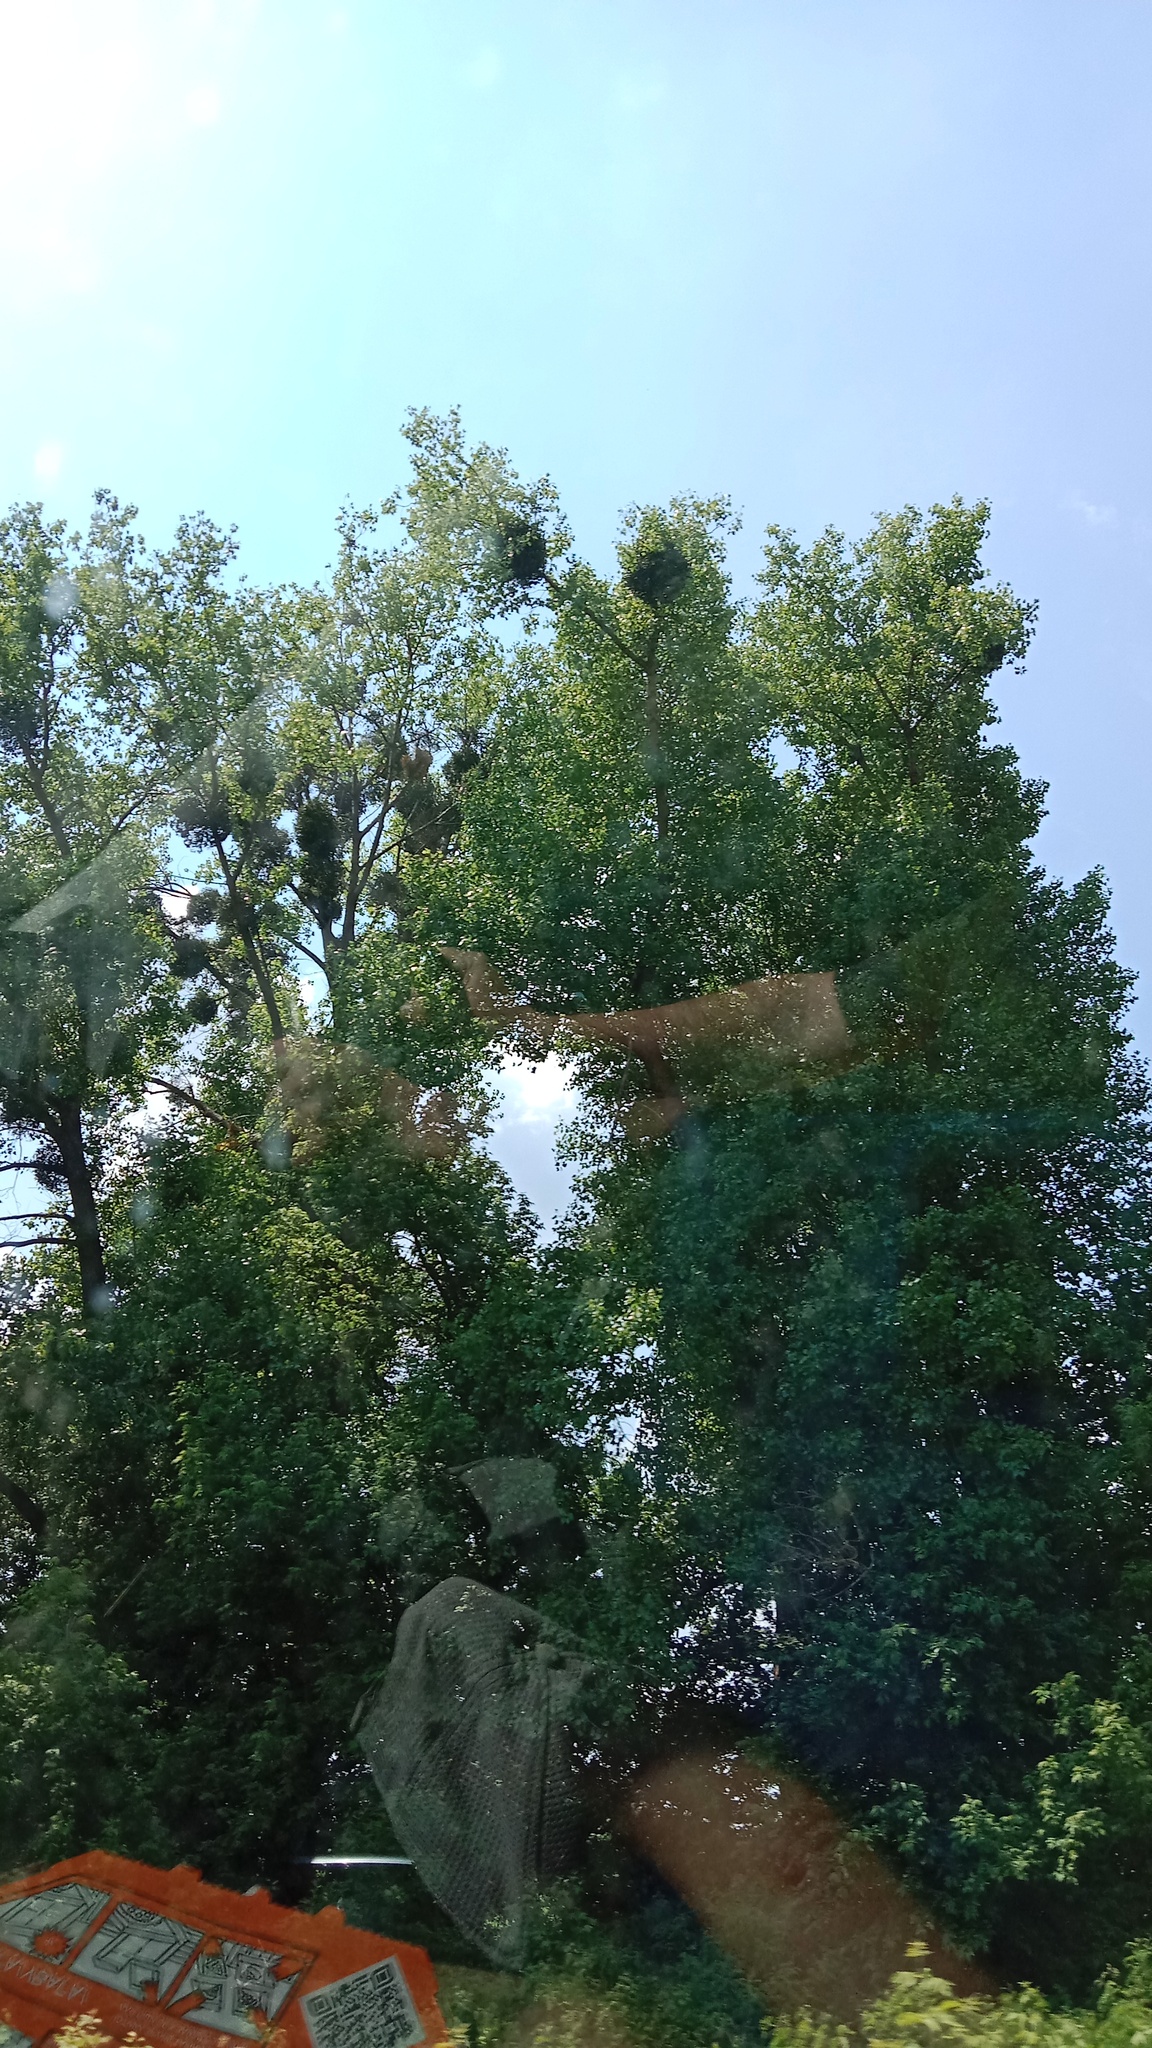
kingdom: Plantae
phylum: Tracheophyta
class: Magnoliopsida
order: Santalales
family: Viscaceae
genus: Viscum
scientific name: Viscum album
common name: Mistletoe
